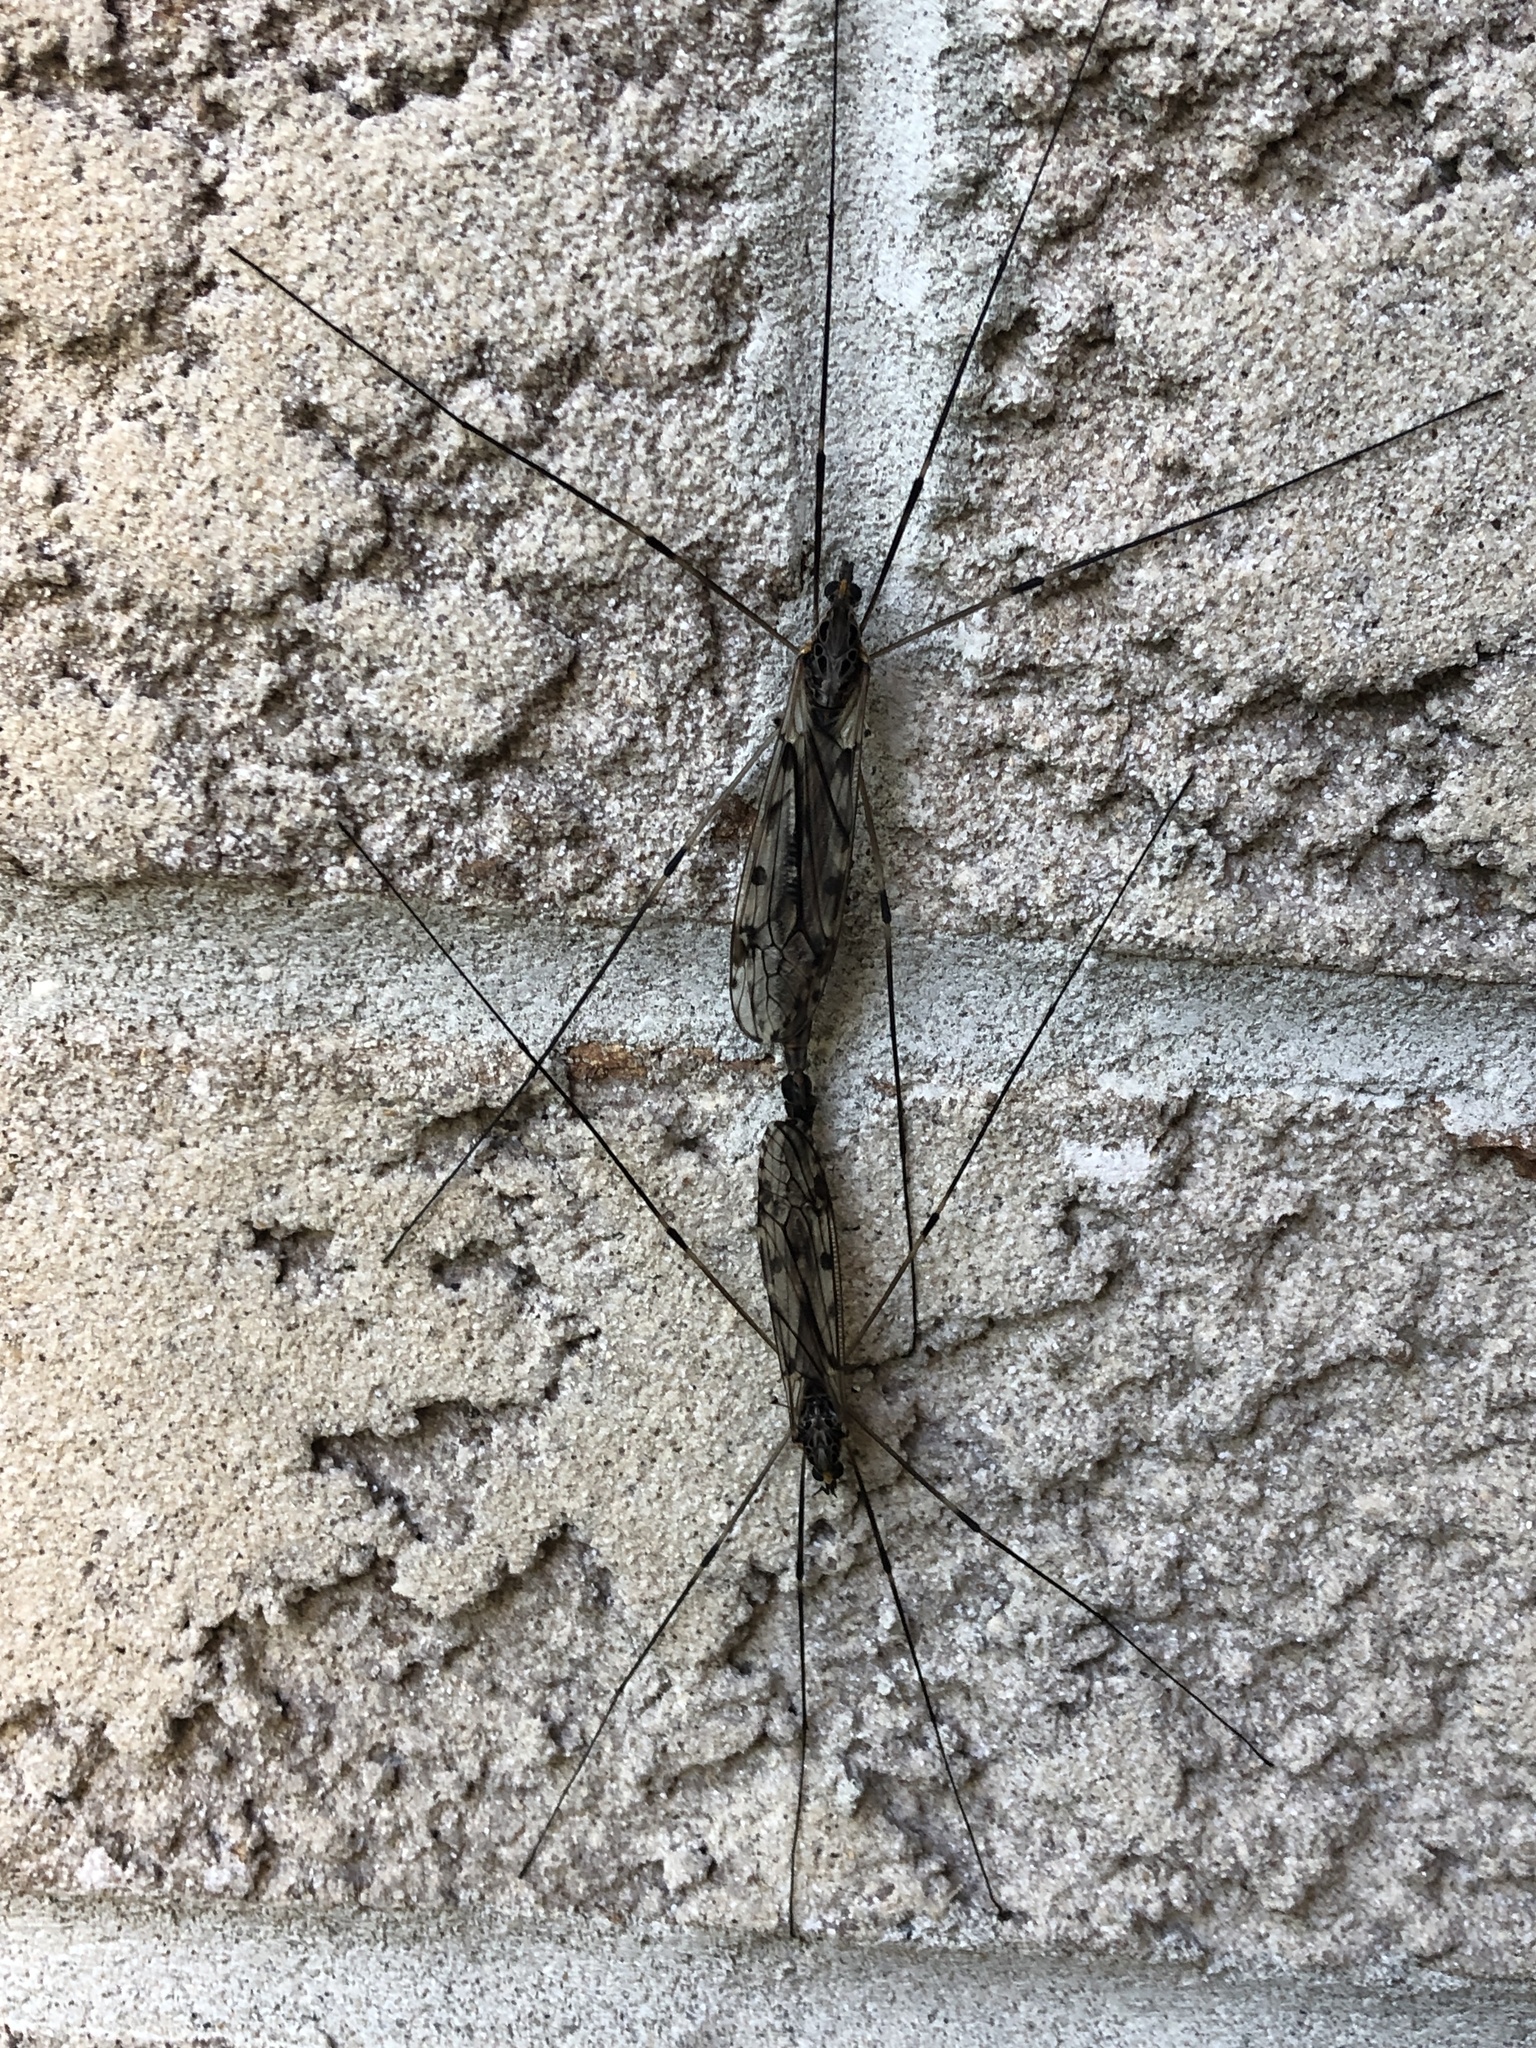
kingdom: Animalia
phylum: Arthropoda
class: Insecta
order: Diptera
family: Tipulidae
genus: Tipula
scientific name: Tipula abdominalis
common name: Giant crane fly
